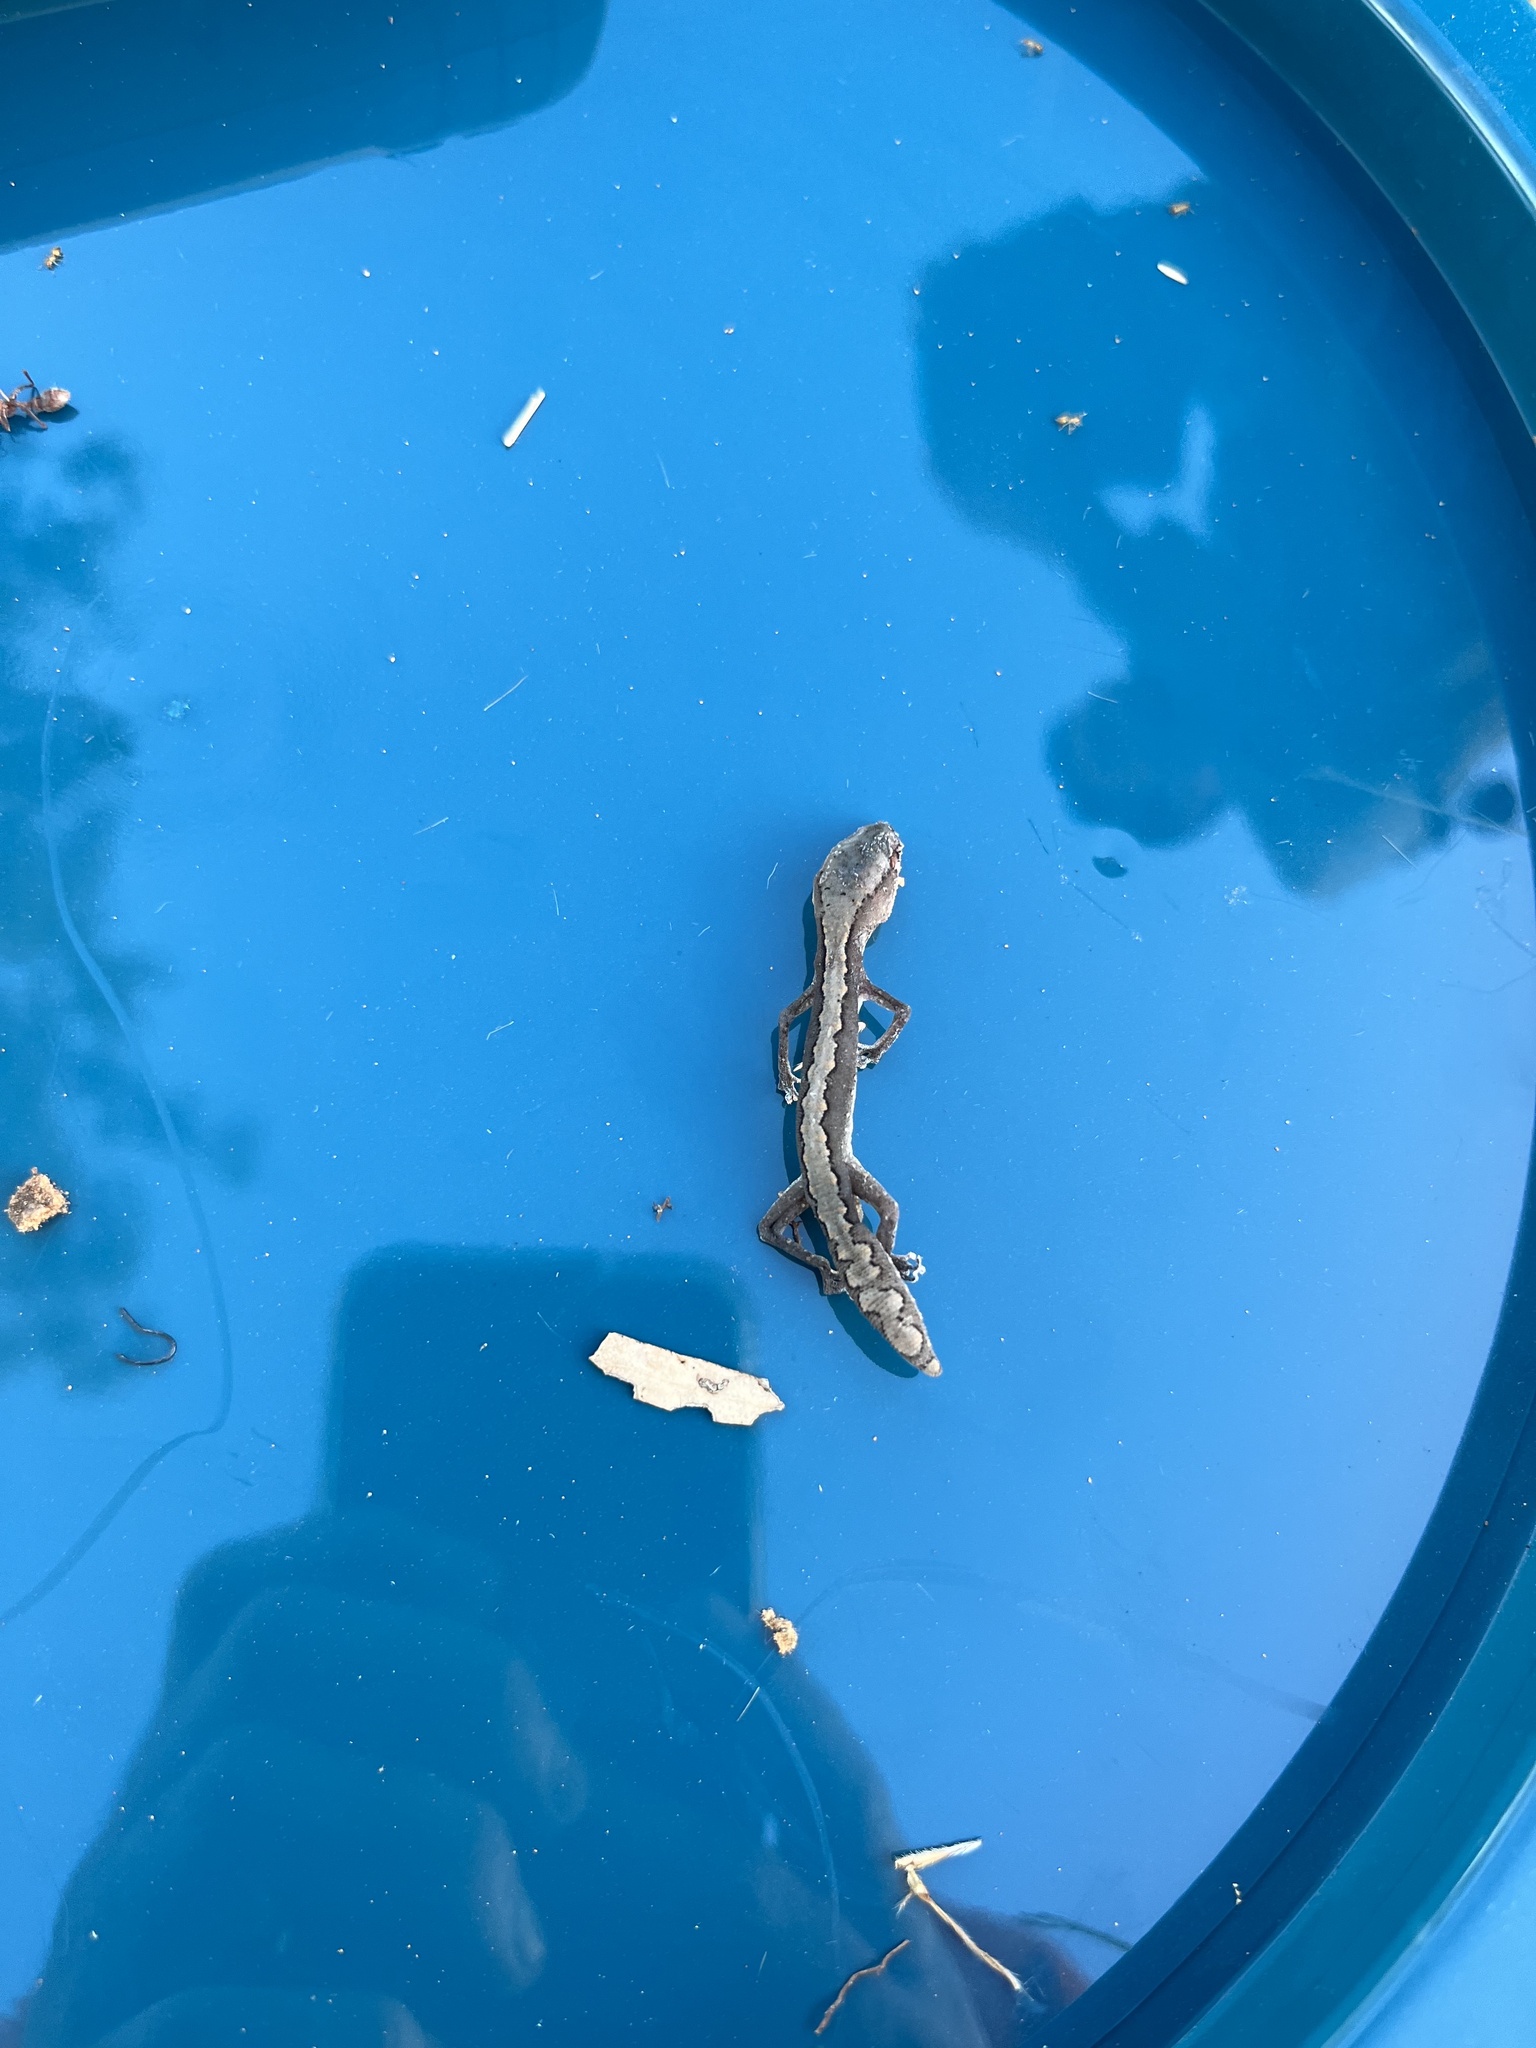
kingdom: Animalia
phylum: Chordata
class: Squamata
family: Diplodactylidae
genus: Diplodactylus
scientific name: Diplodactylus vittatus
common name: Eastern stone gecko
